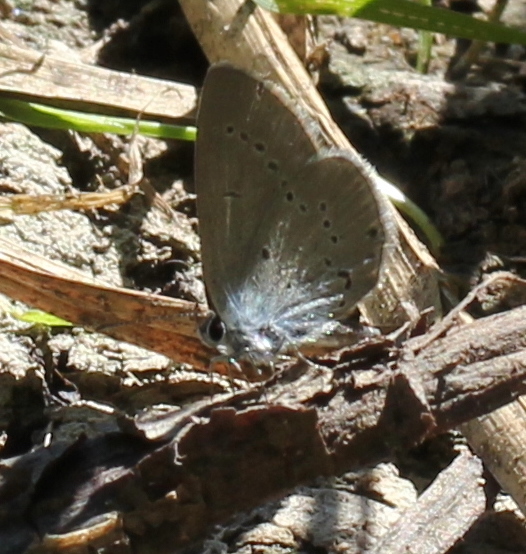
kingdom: Animalia
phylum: Arthropoda
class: Insecta
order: Lepidoptera
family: Lycaenidae
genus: Cupido
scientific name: Cupido minimus
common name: Small blue
